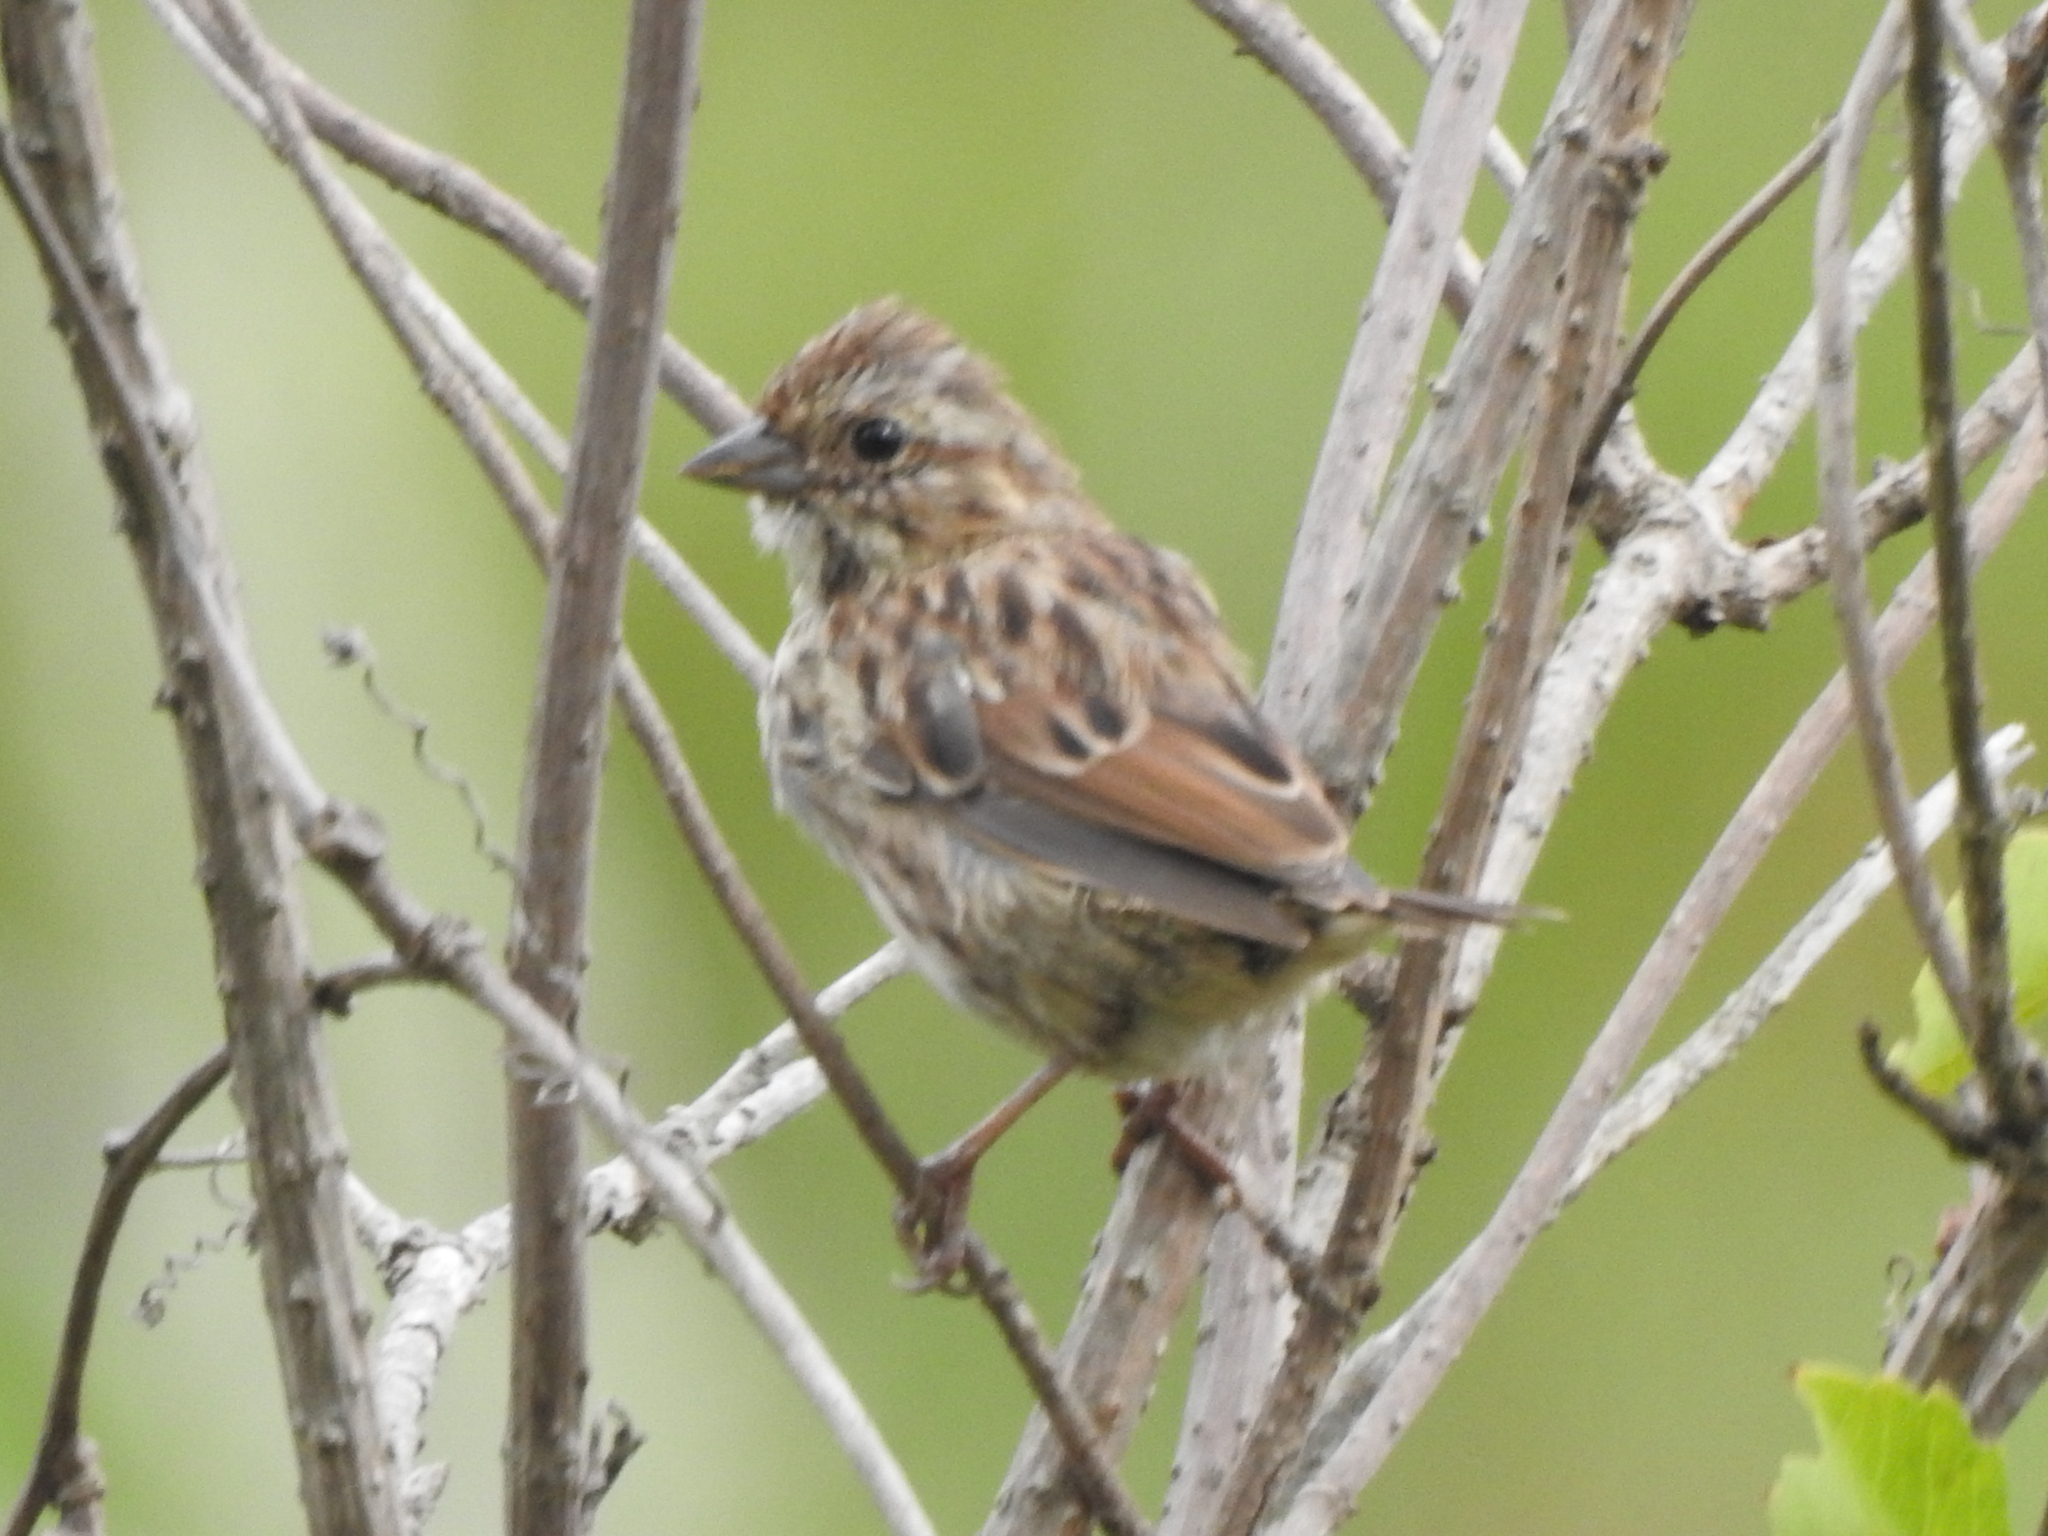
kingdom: Animalia
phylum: Chordata
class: Aves
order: Passeriformes
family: Passerellidae
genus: Melospiza
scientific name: Melospiza melodia
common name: Song sparrow
